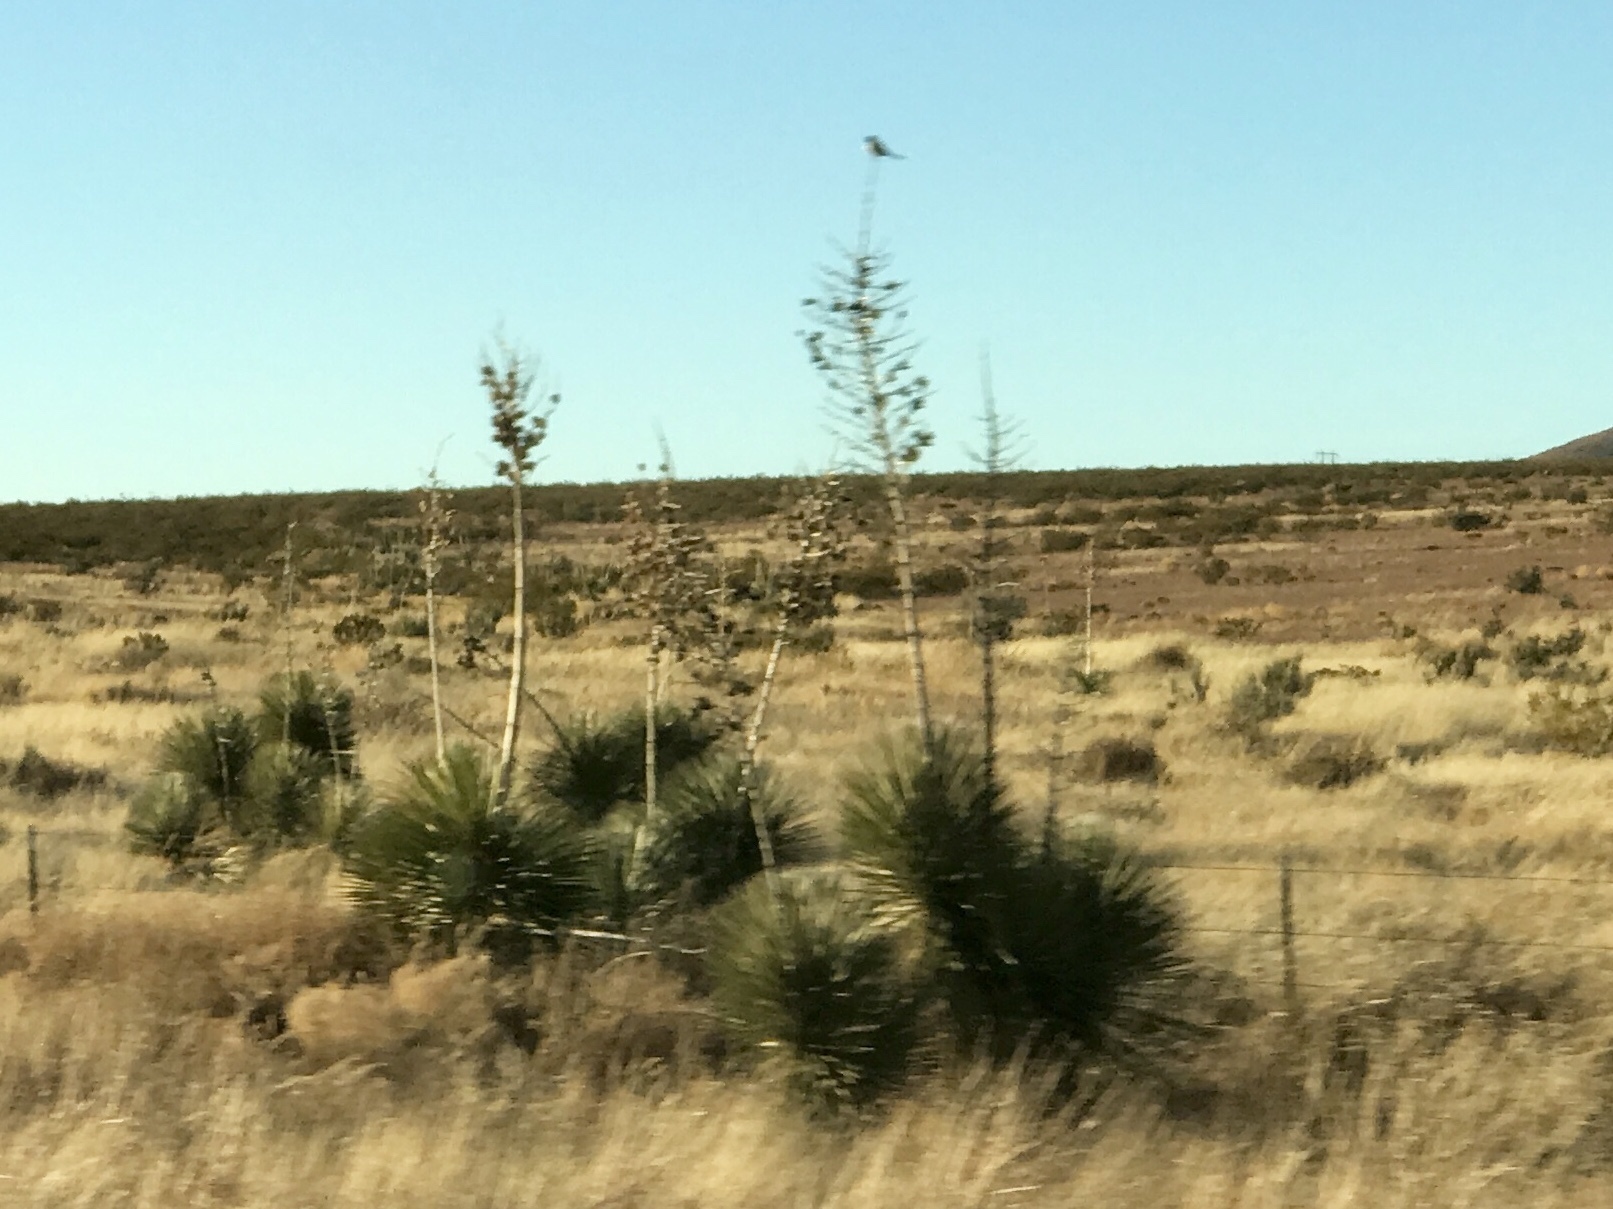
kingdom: Plantae
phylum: Tracheophyta
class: Liliopsida
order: Asparagales
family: Asparagaceae
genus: Yucca
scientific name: Yucca elata
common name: Palmella
